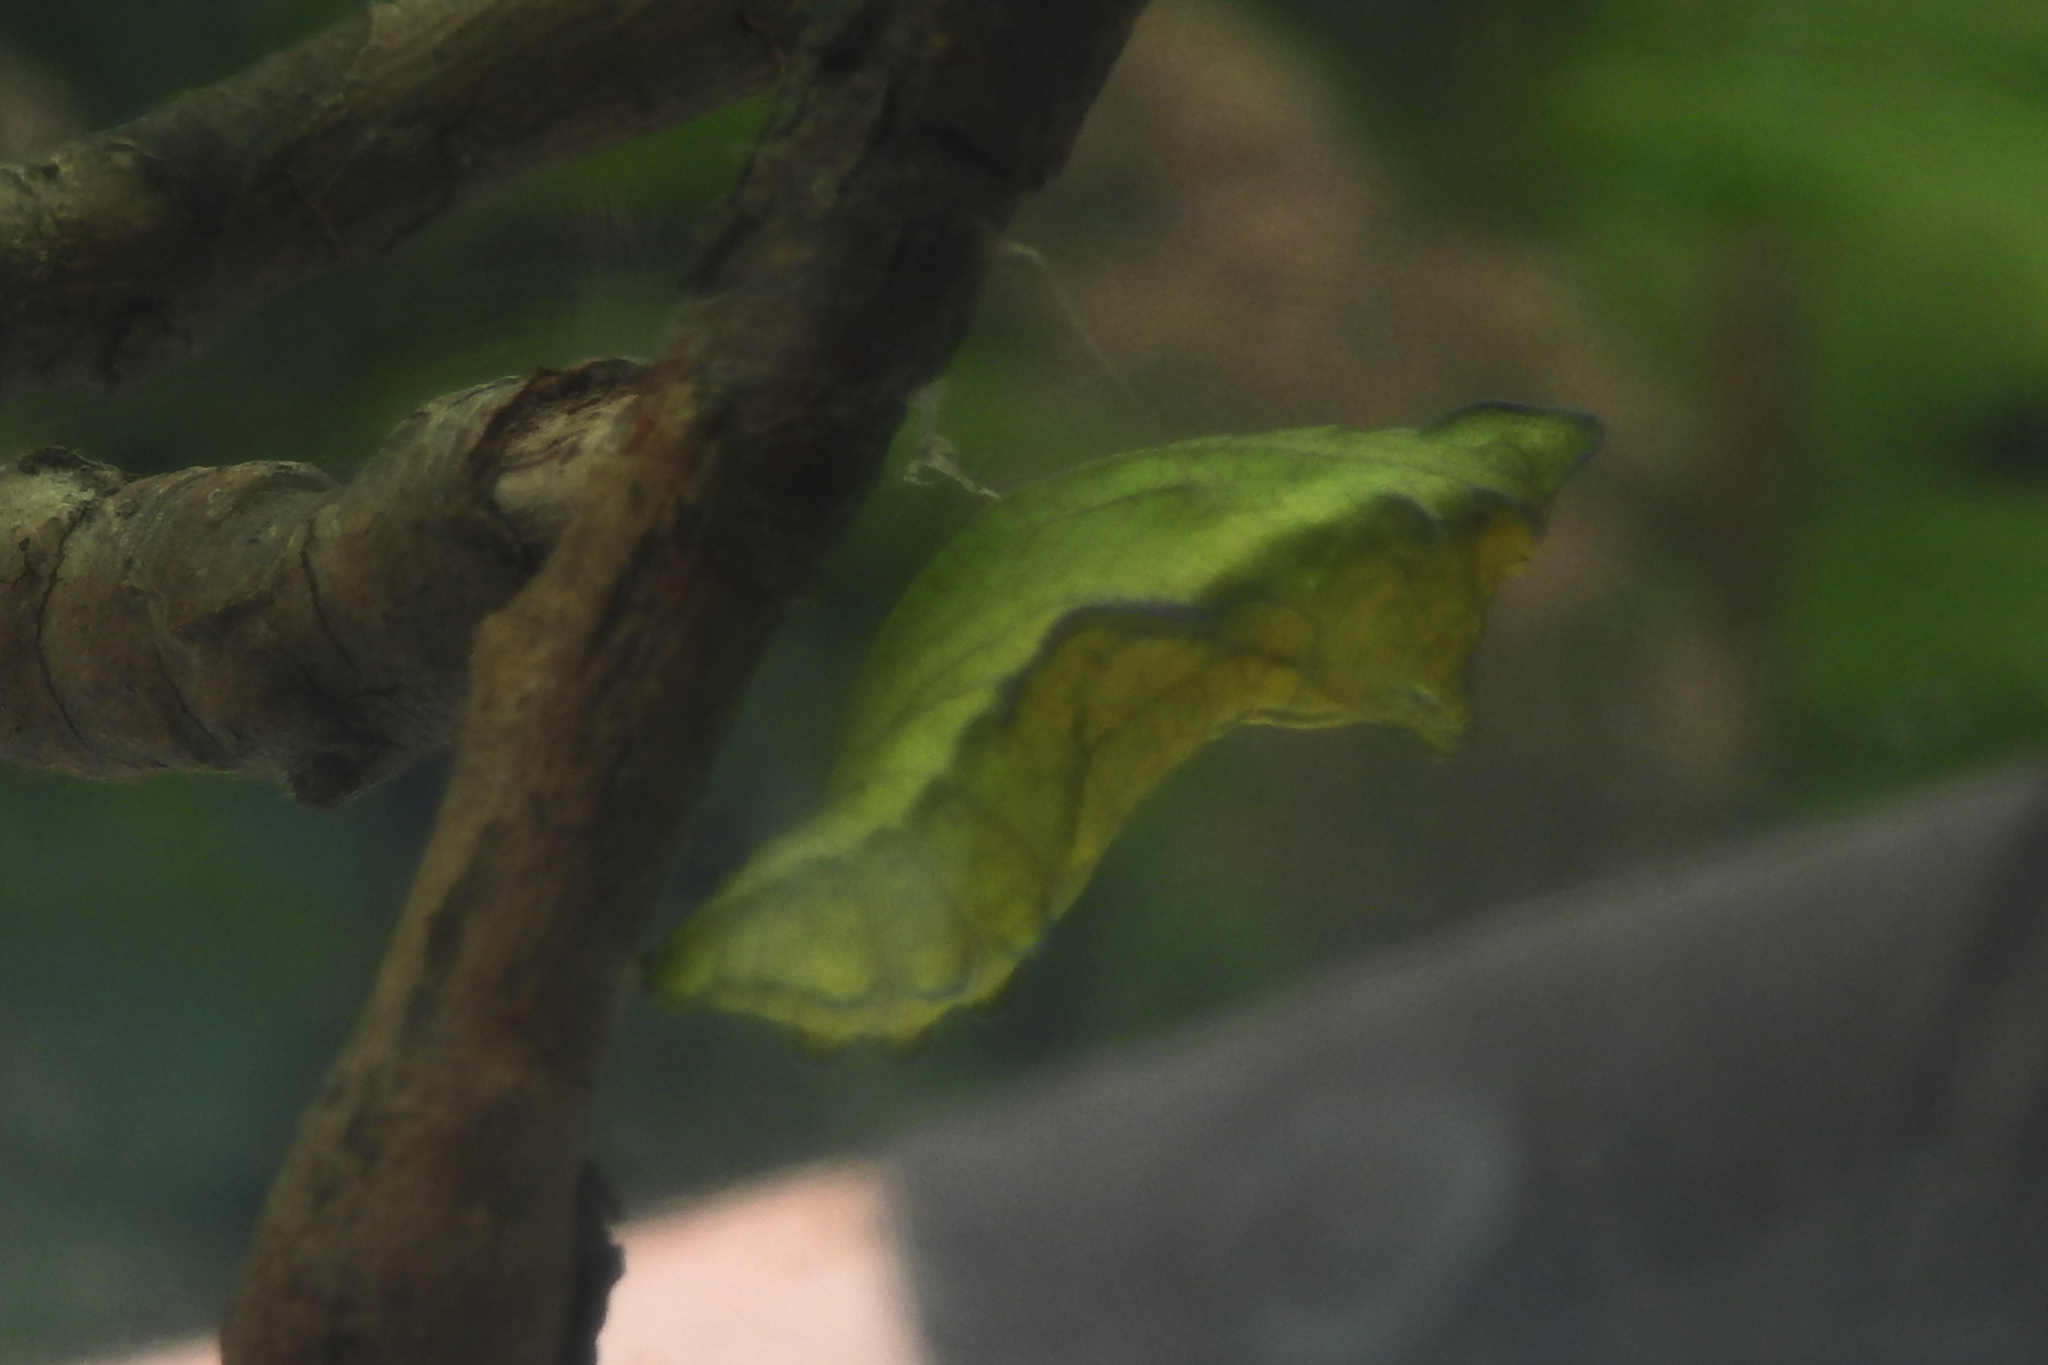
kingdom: Animalia
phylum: Arthropoda
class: Insecta
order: Lepidoptera
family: Papilionidae
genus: Battus
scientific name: Battus philenor
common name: Pipevine swallowtail
